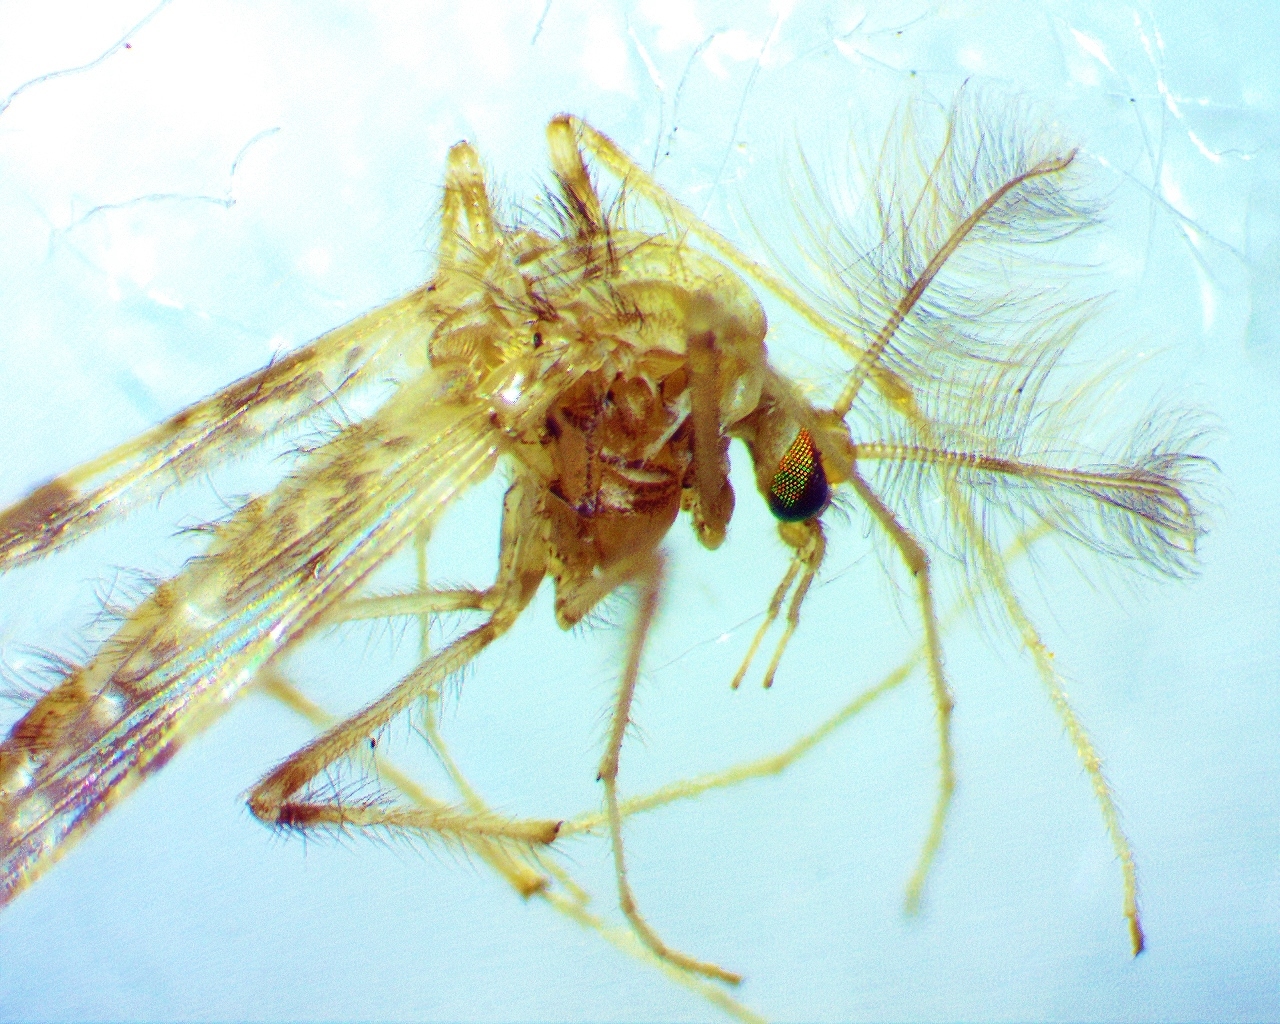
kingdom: Animalia
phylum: Arthropoda
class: Insecta
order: Diptera
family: Chironomidae
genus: Psectrotanypus
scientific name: Psectrotanypus dyari
